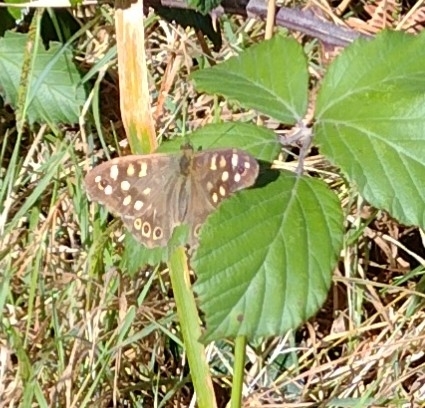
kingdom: Animalia
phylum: Arthropoda
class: Insecta
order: Lepidoptera
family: Nymphalidae
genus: Pararge
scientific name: Pararge aegeria
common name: Speckled wood
